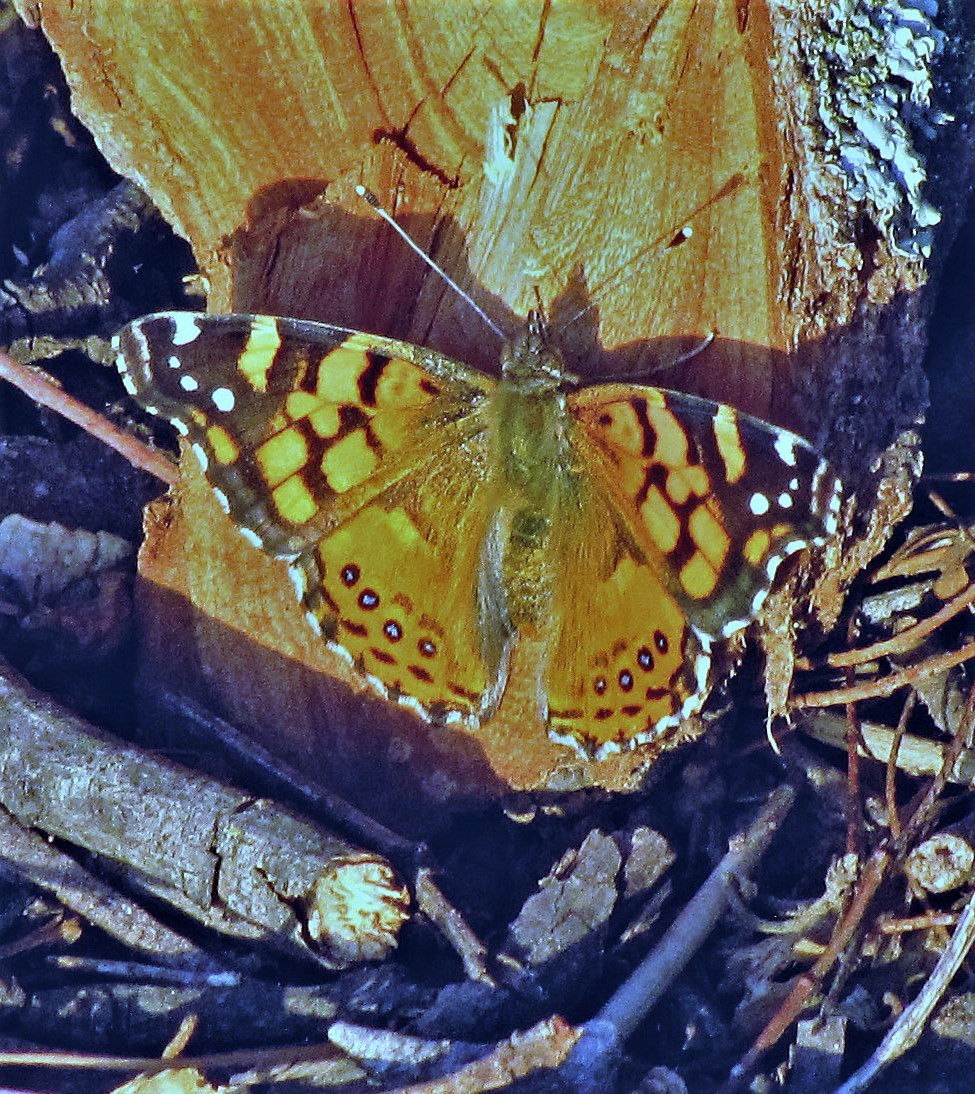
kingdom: Animalia
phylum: Arthropoda
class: Insecta
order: Lepidoptera
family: Nymphalidae
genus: Vanessa
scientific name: Vanessa carye
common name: Subtropical lady
